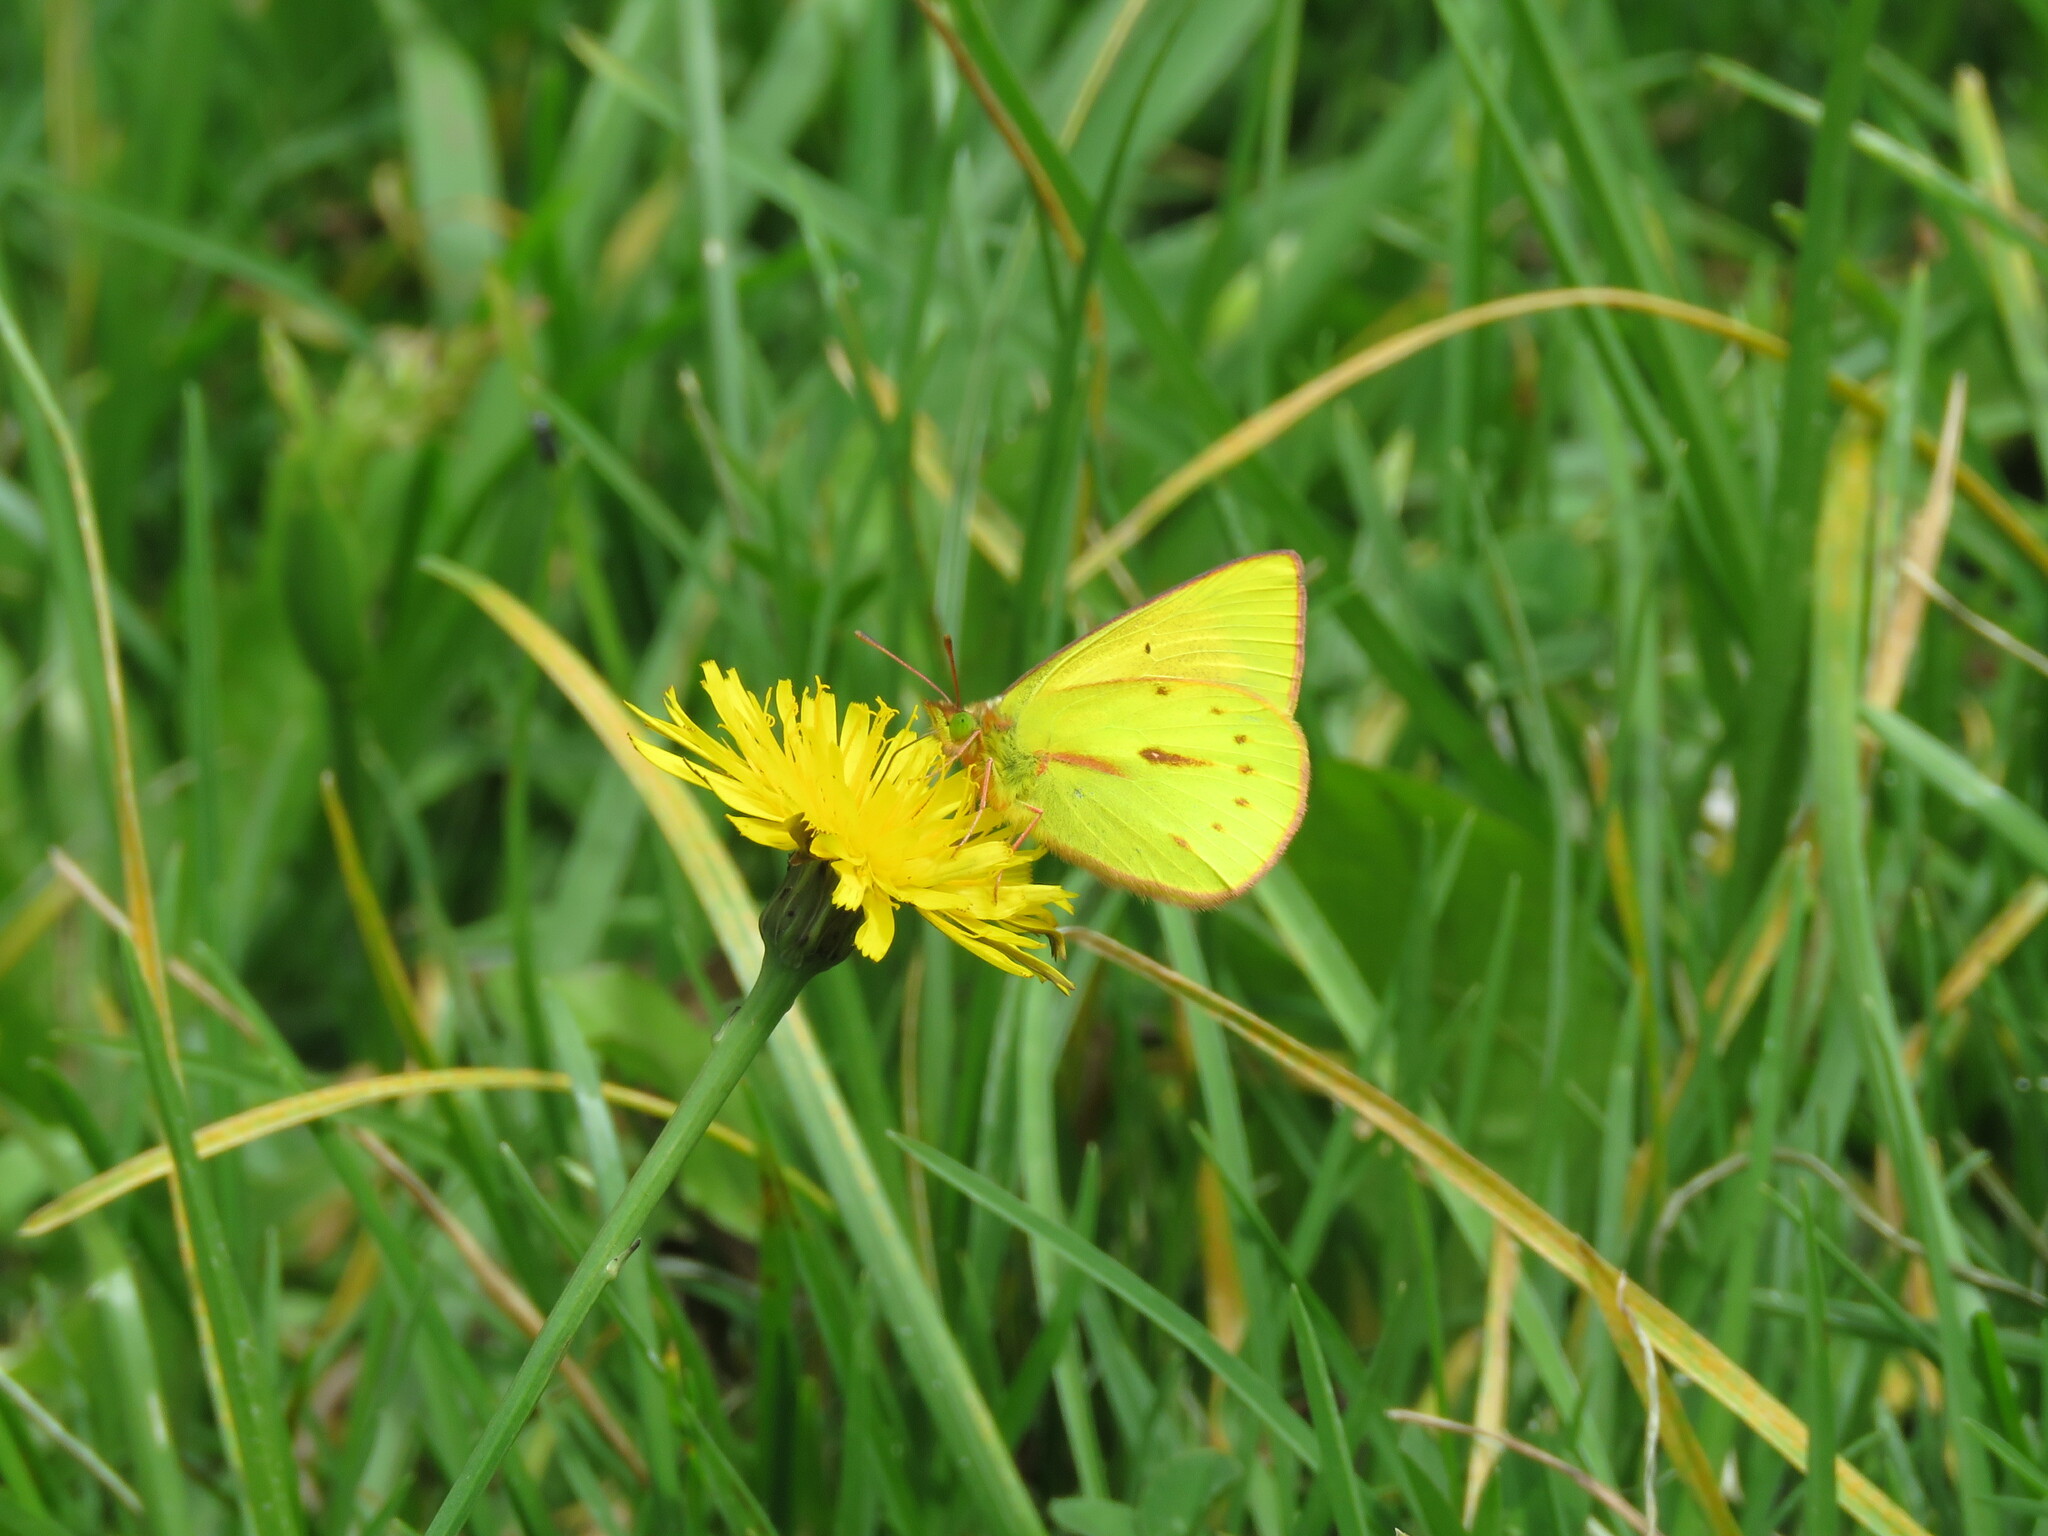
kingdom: Animalia
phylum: Arthropoda
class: Insecta
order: Lepidoptera
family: Pieridae
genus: Colias
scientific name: Colias dimera
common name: Dimera sulphur
